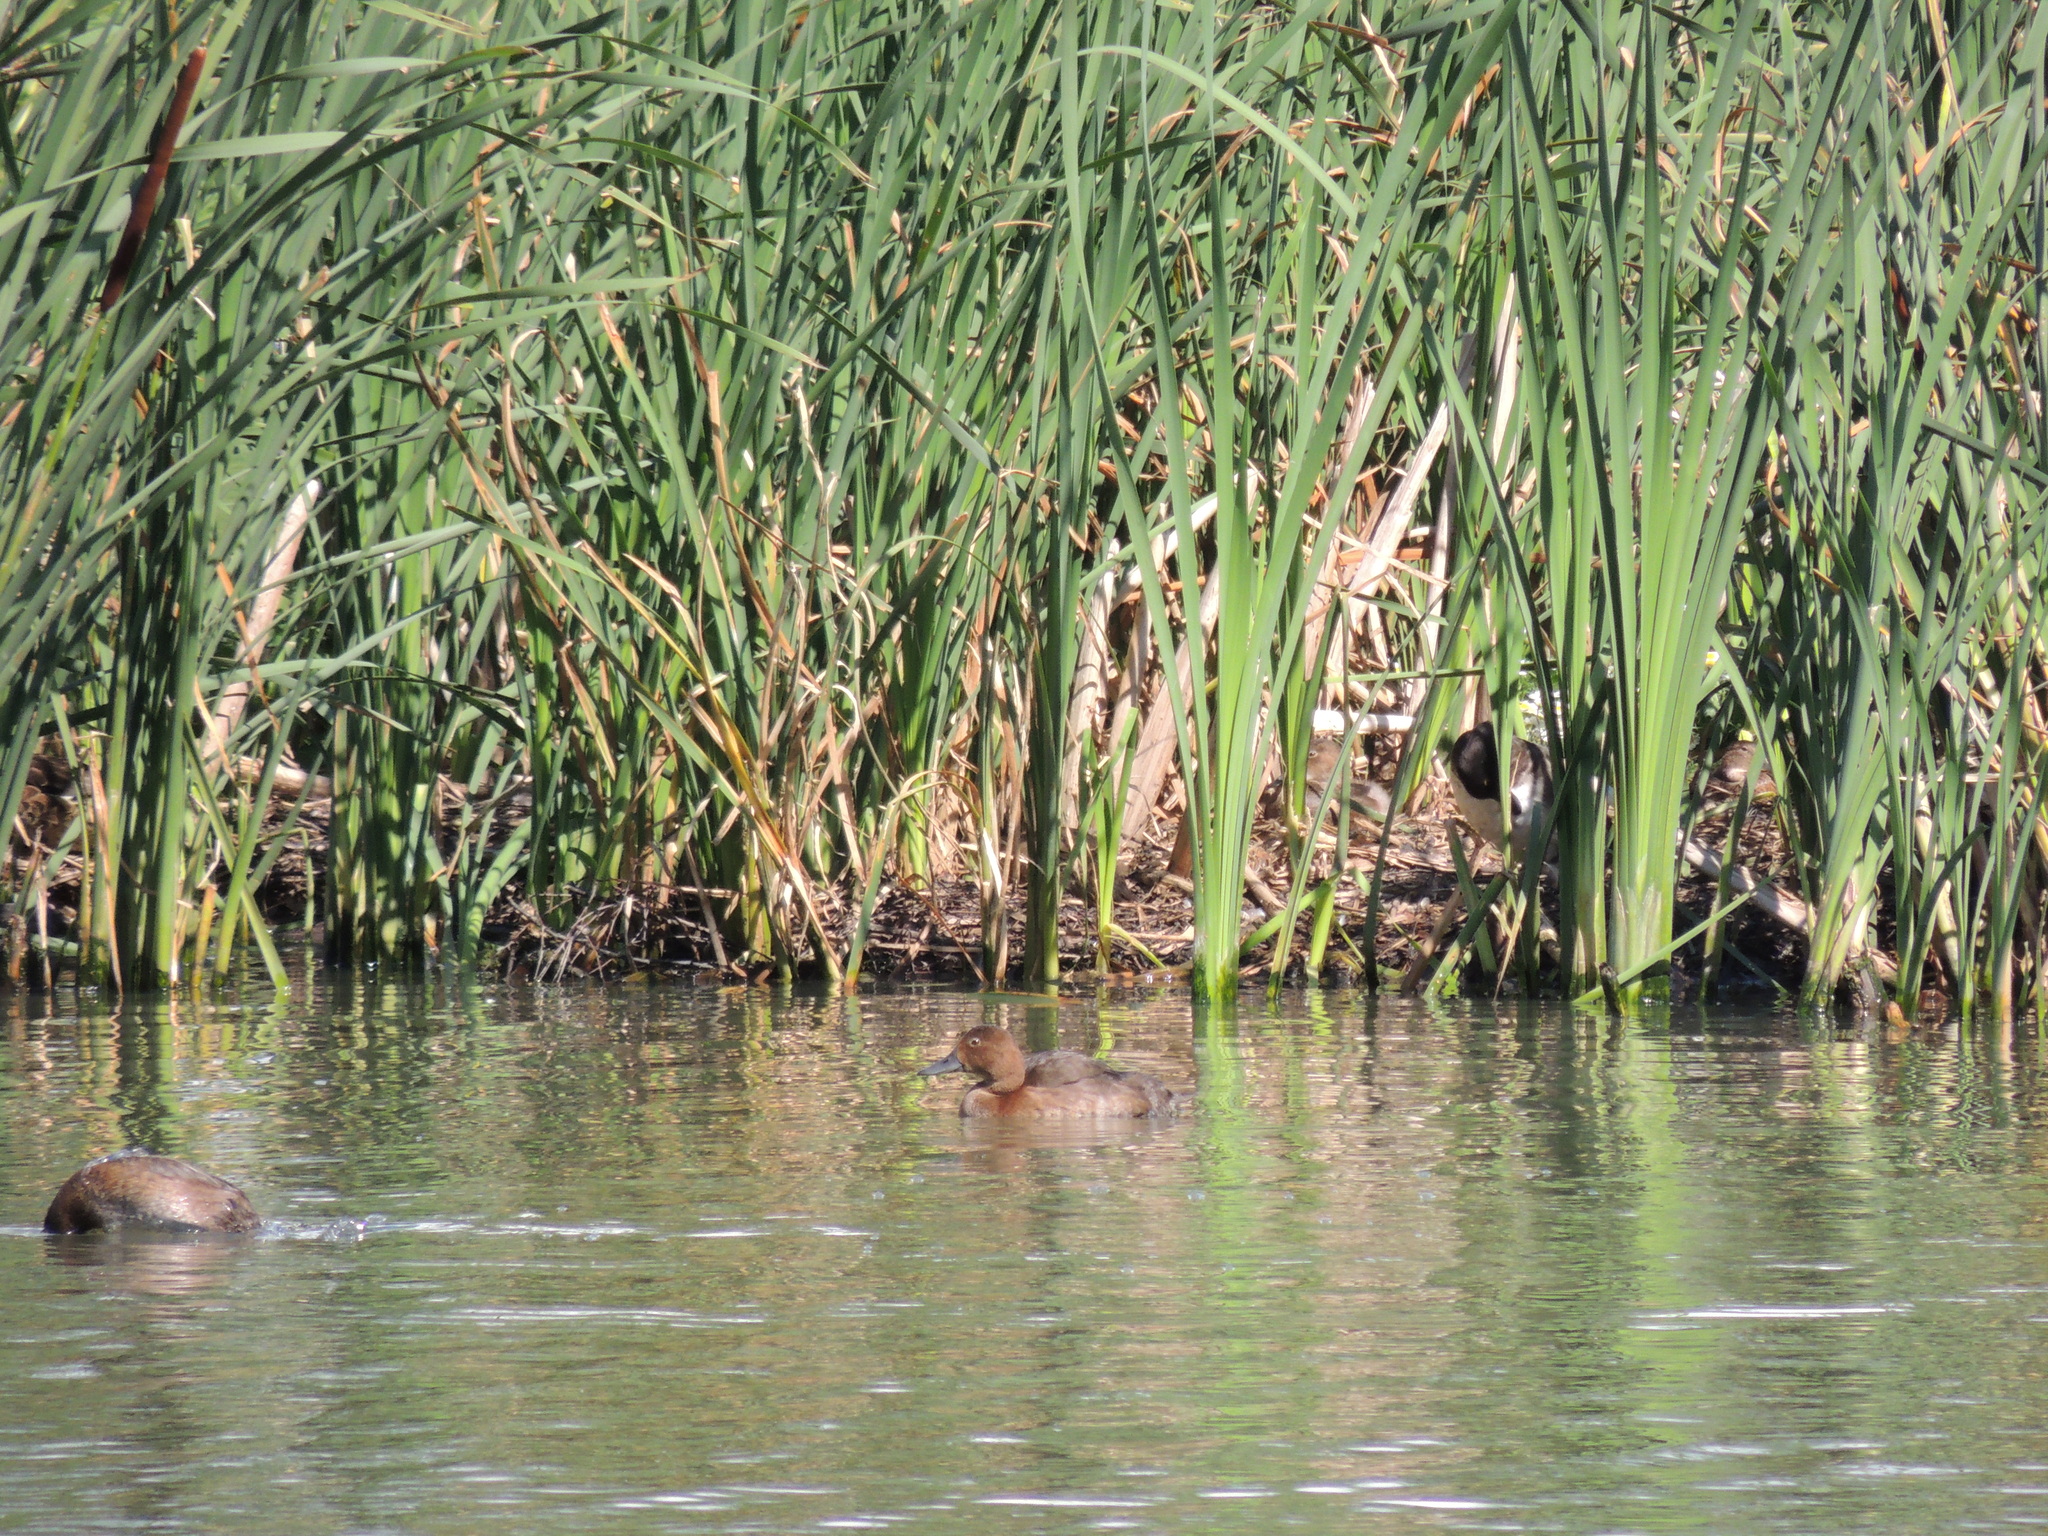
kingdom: Animalia
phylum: Chordata
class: Aves
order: Anseriformes
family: Anatidae
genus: Aythya
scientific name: Aythya ferina
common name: Common pochard
